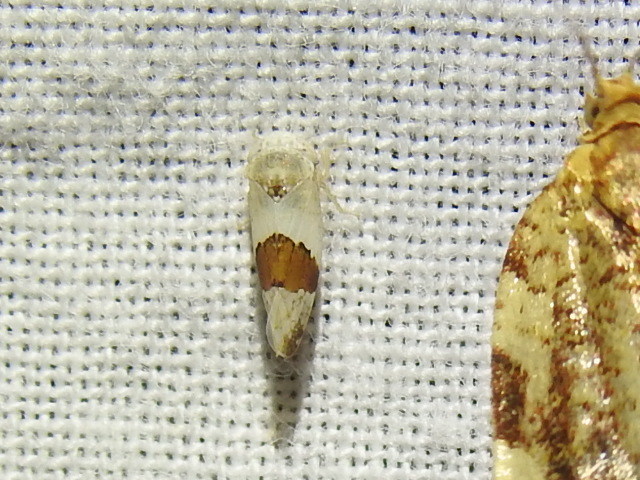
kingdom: Animalia
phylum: Arthropoda
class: Insecta
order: Hemiptera
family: Cicadellidae
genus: Norvellina
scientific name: Norvellina seminuda
